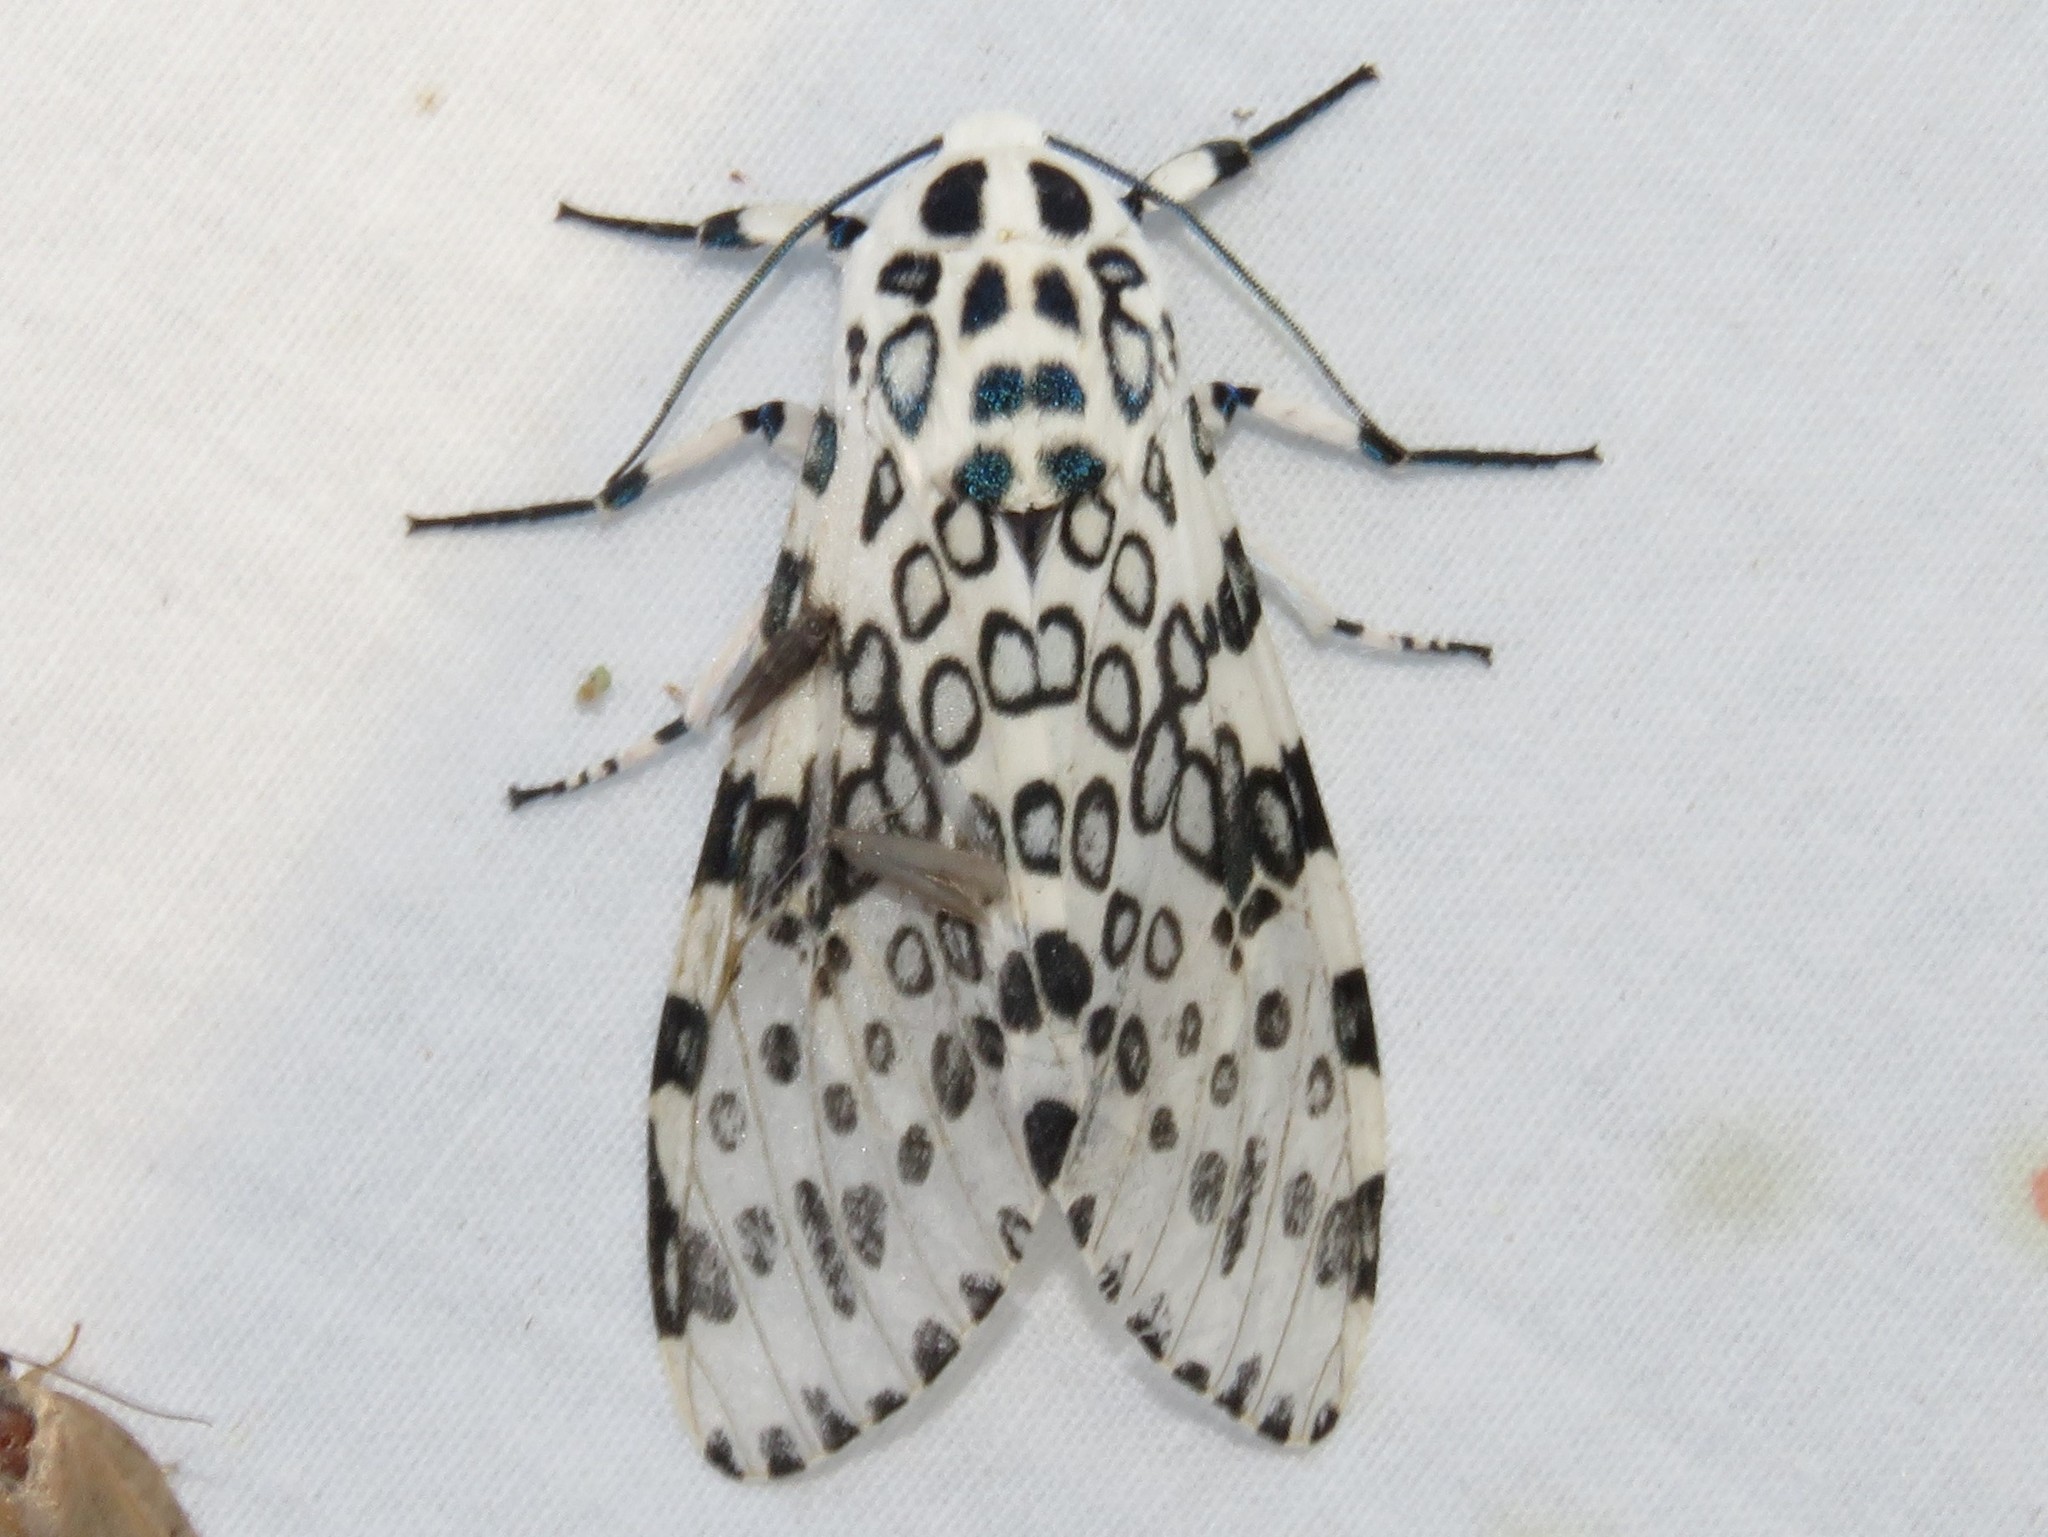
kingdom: Animalia
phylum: Arthropoda
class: Insecta
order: Lepidoptera
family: Erebidae
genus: Hypercompe
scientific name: Hypercompe scribonia
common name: Giant leopard moth
